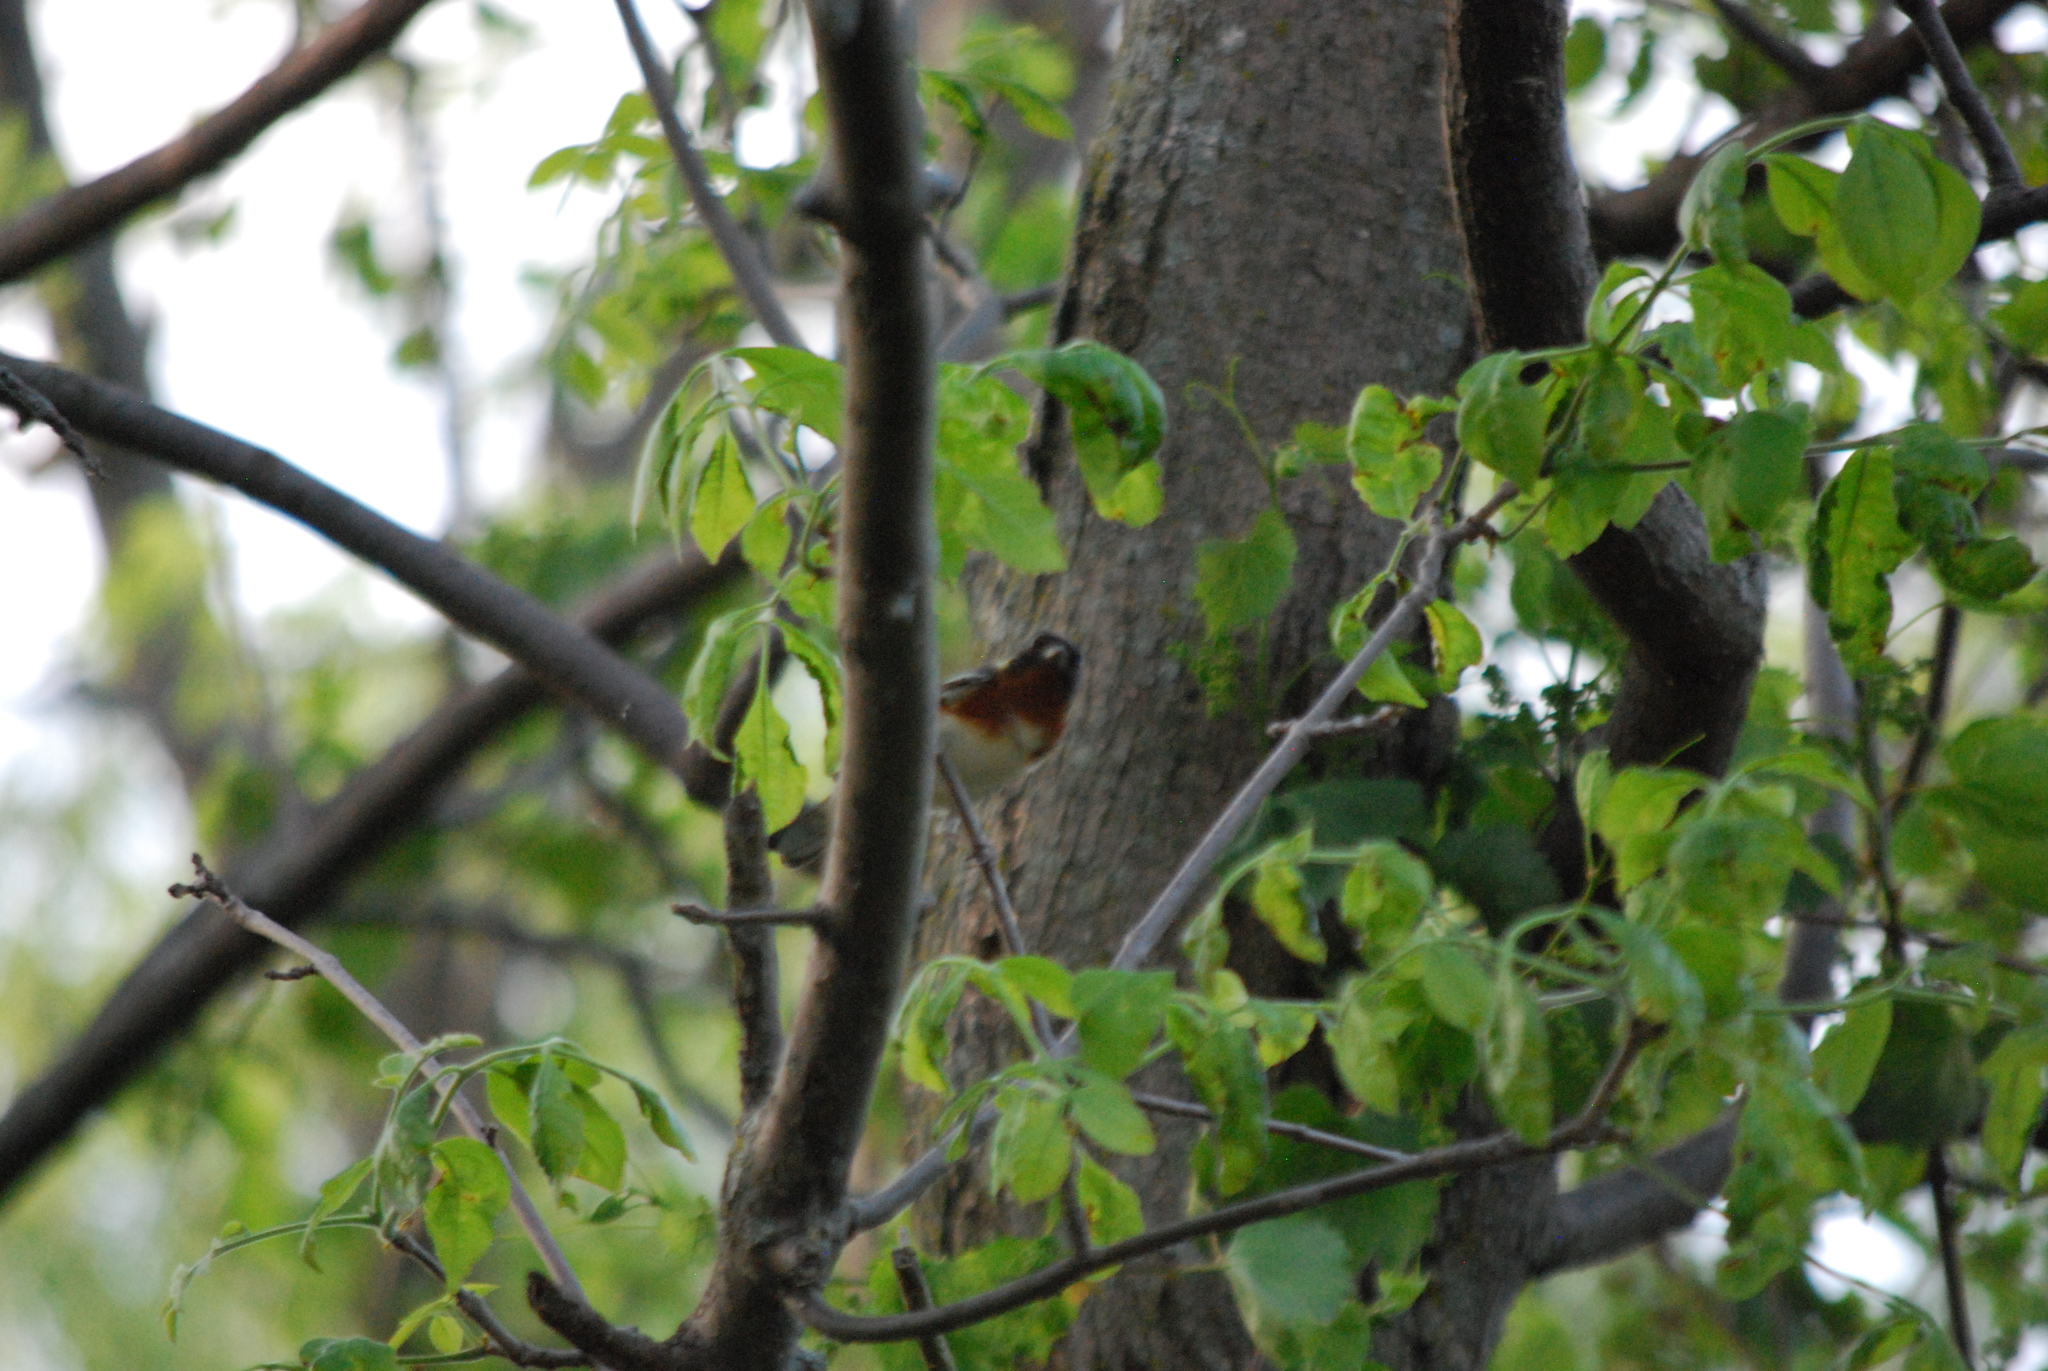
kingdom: Animalia
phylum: Chordata
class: Aves
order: Passeriformes
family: Parulidae
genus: Setophaga
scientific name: Setophaga castanea
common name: Bay-breasted warbler
